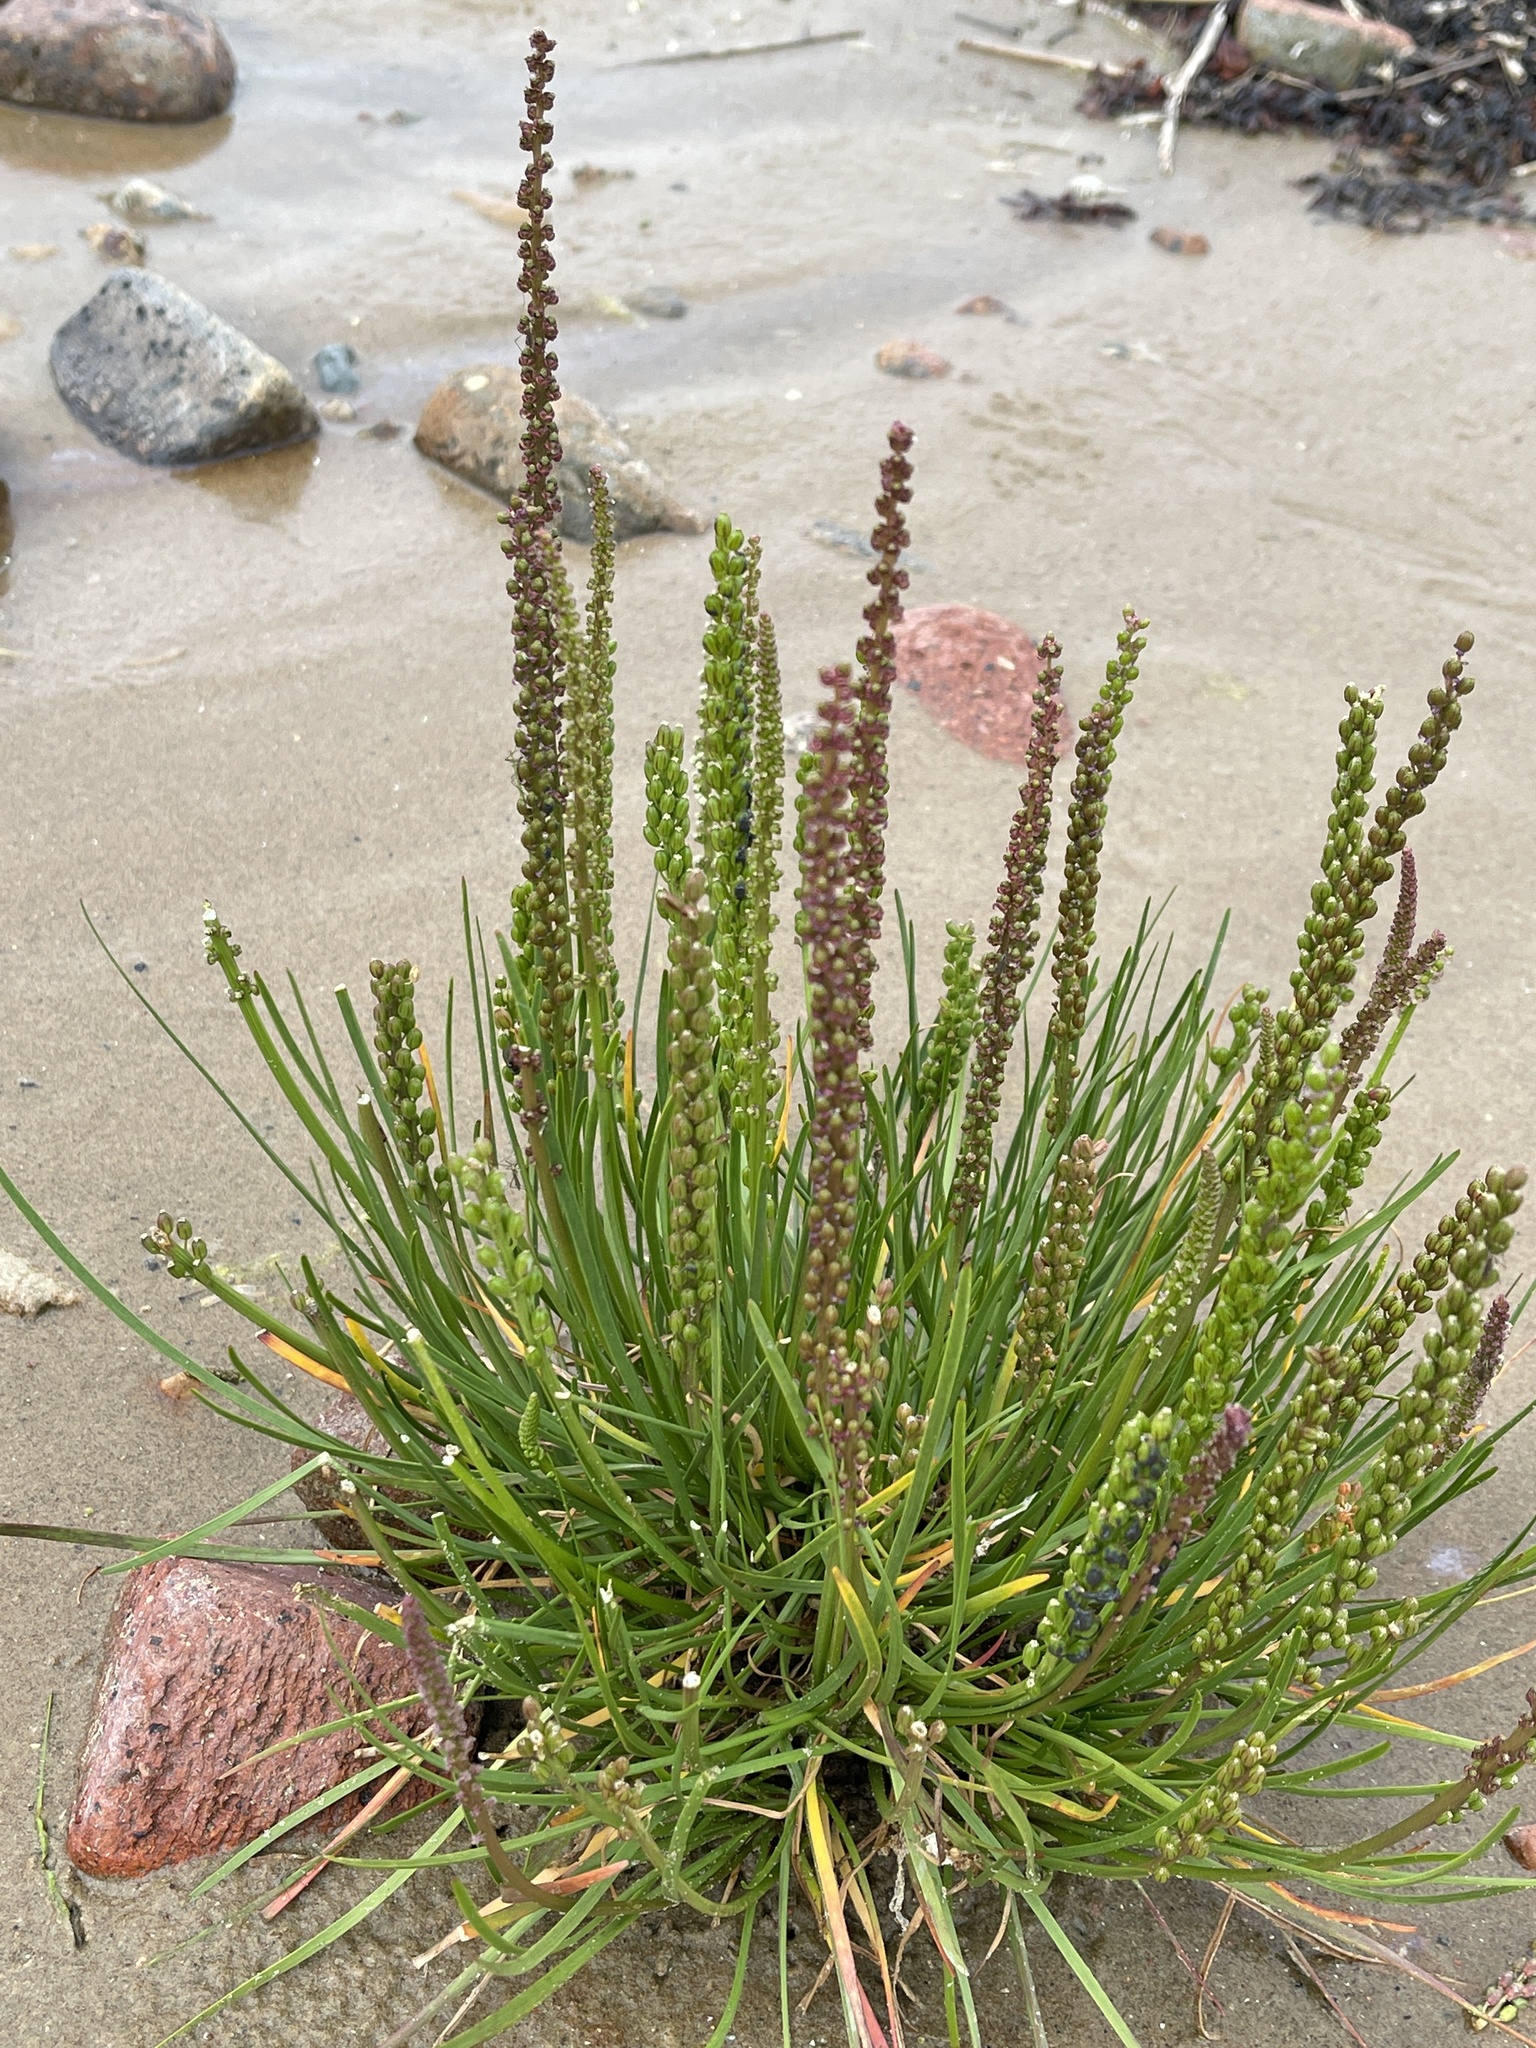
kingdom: Plantae
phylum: Tracheophyta
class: Liliopsida
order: Alismatales
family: Juncaginaceae
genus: Triglochin
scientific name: Triglochin maritima
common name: Sea arrowgrass
